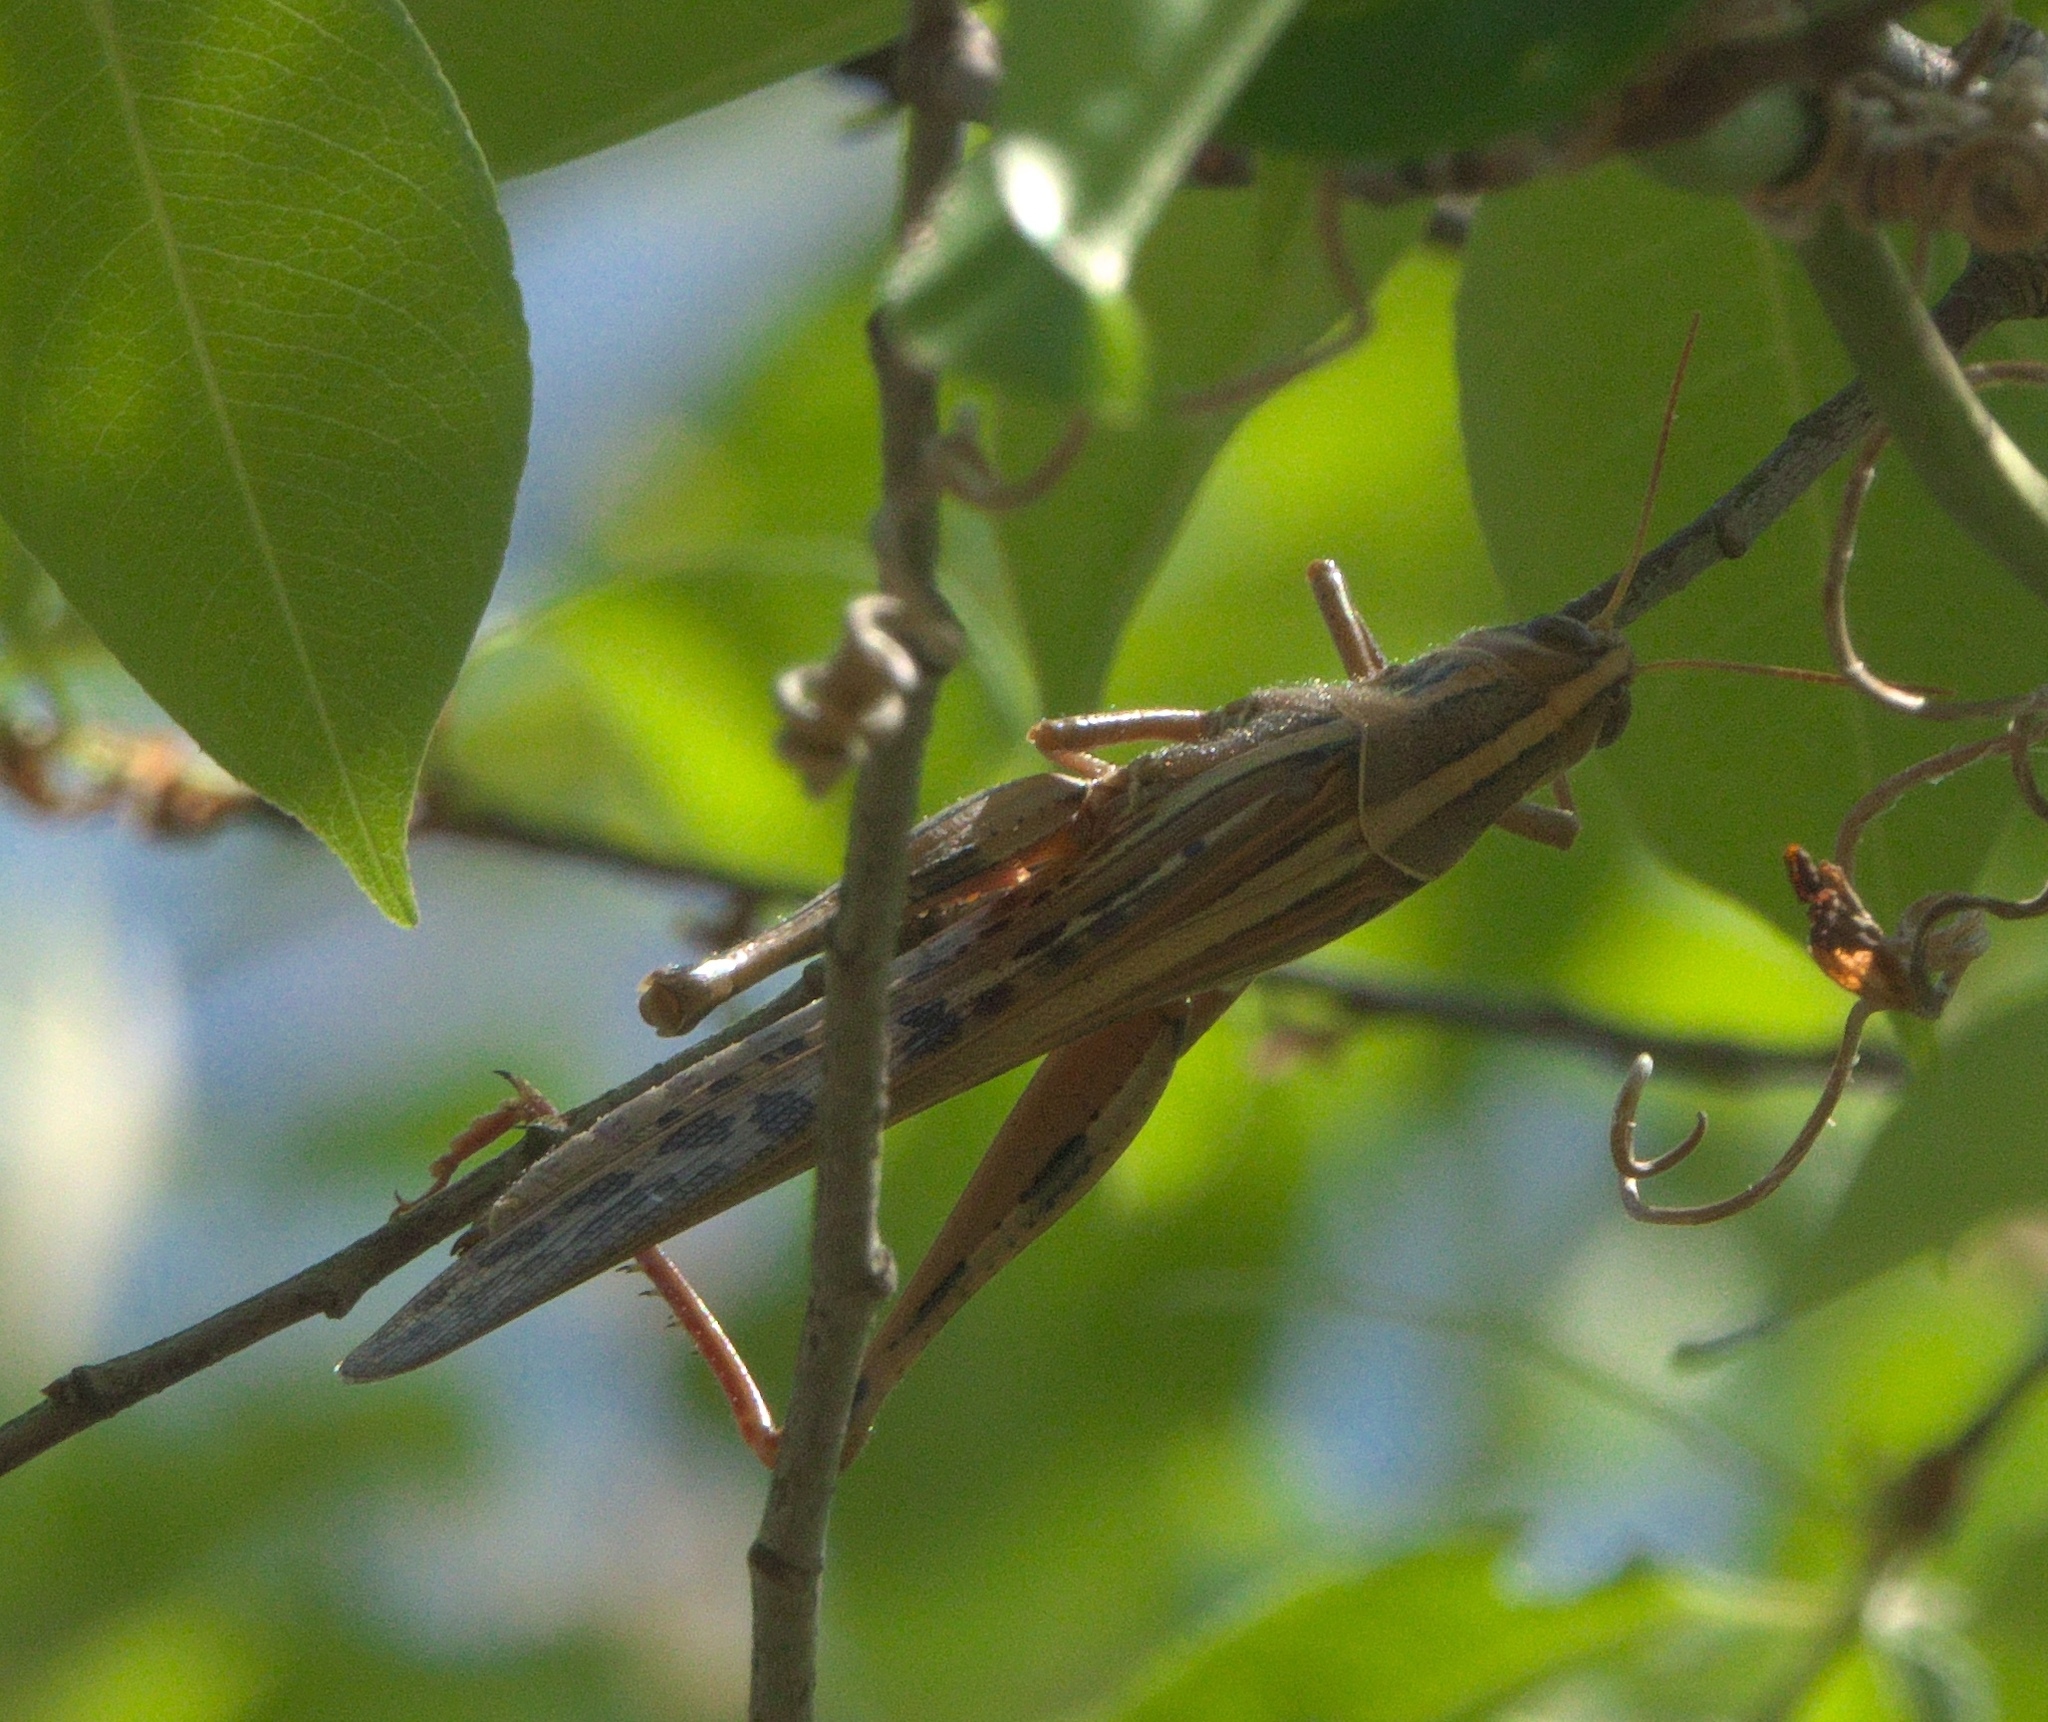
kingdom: Animalia
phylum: Arthropoda
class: Insecta
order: Orthoptera
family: Acrididae
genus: Schistocerca
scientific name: Schistocerca americana
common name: American bird locust
